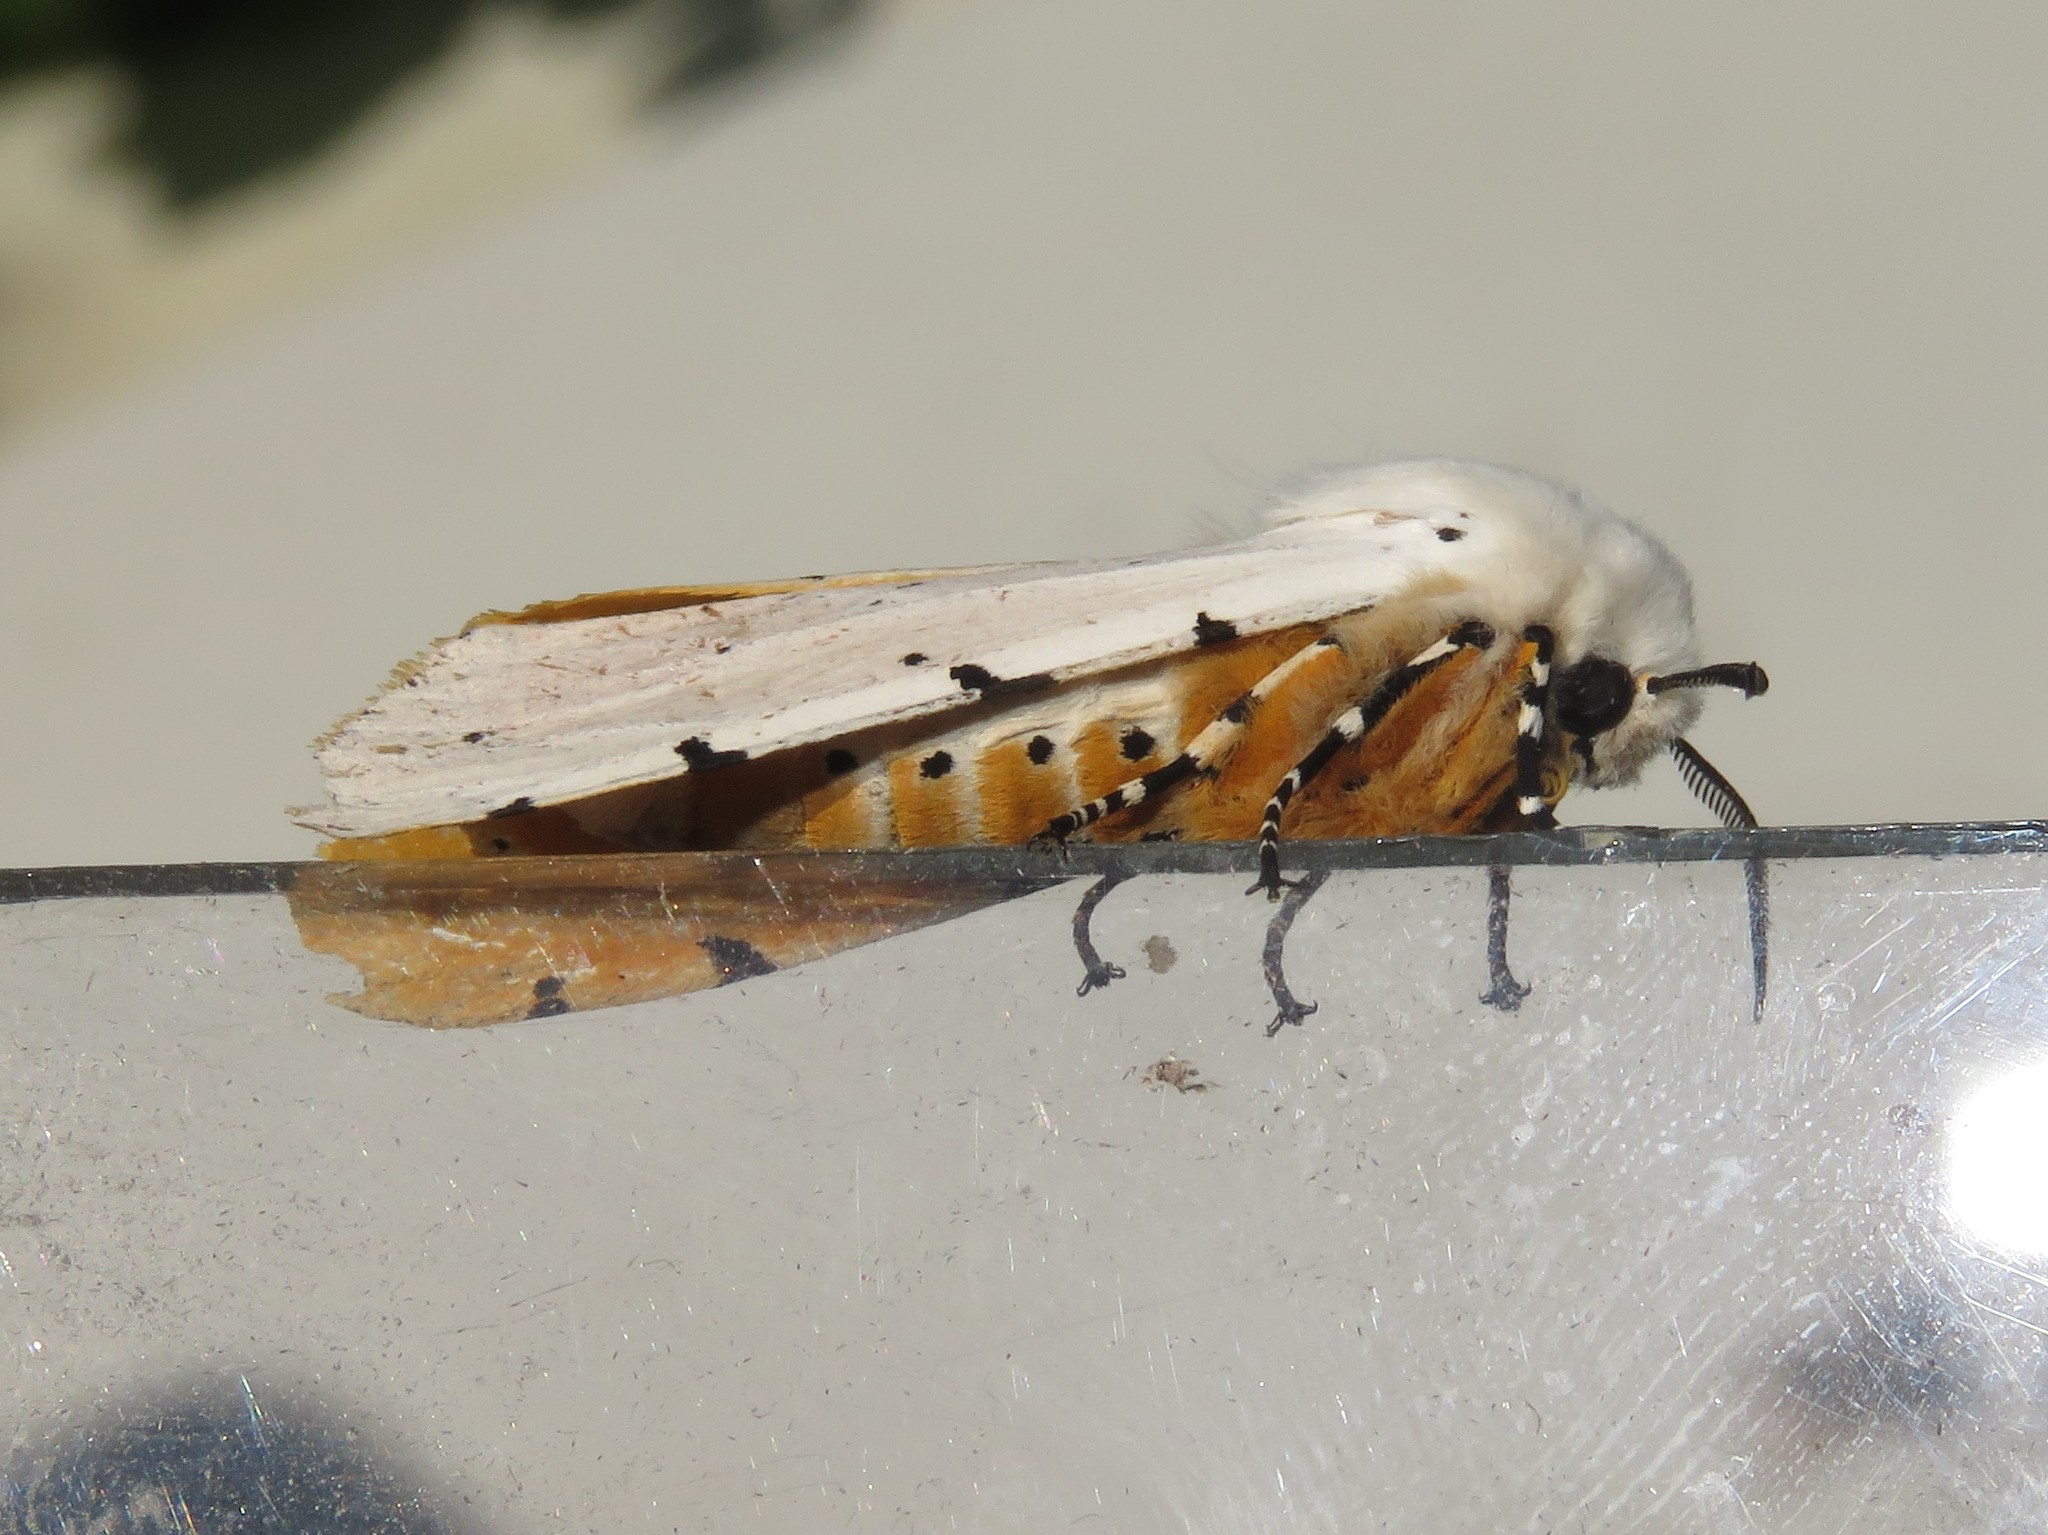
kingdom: Animalia
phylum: Arthropoda
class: Insecta
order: Lepidoptera
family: Erebidae
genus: Estigmene
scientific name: Estigmene acrea
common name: Salt marsh moth
